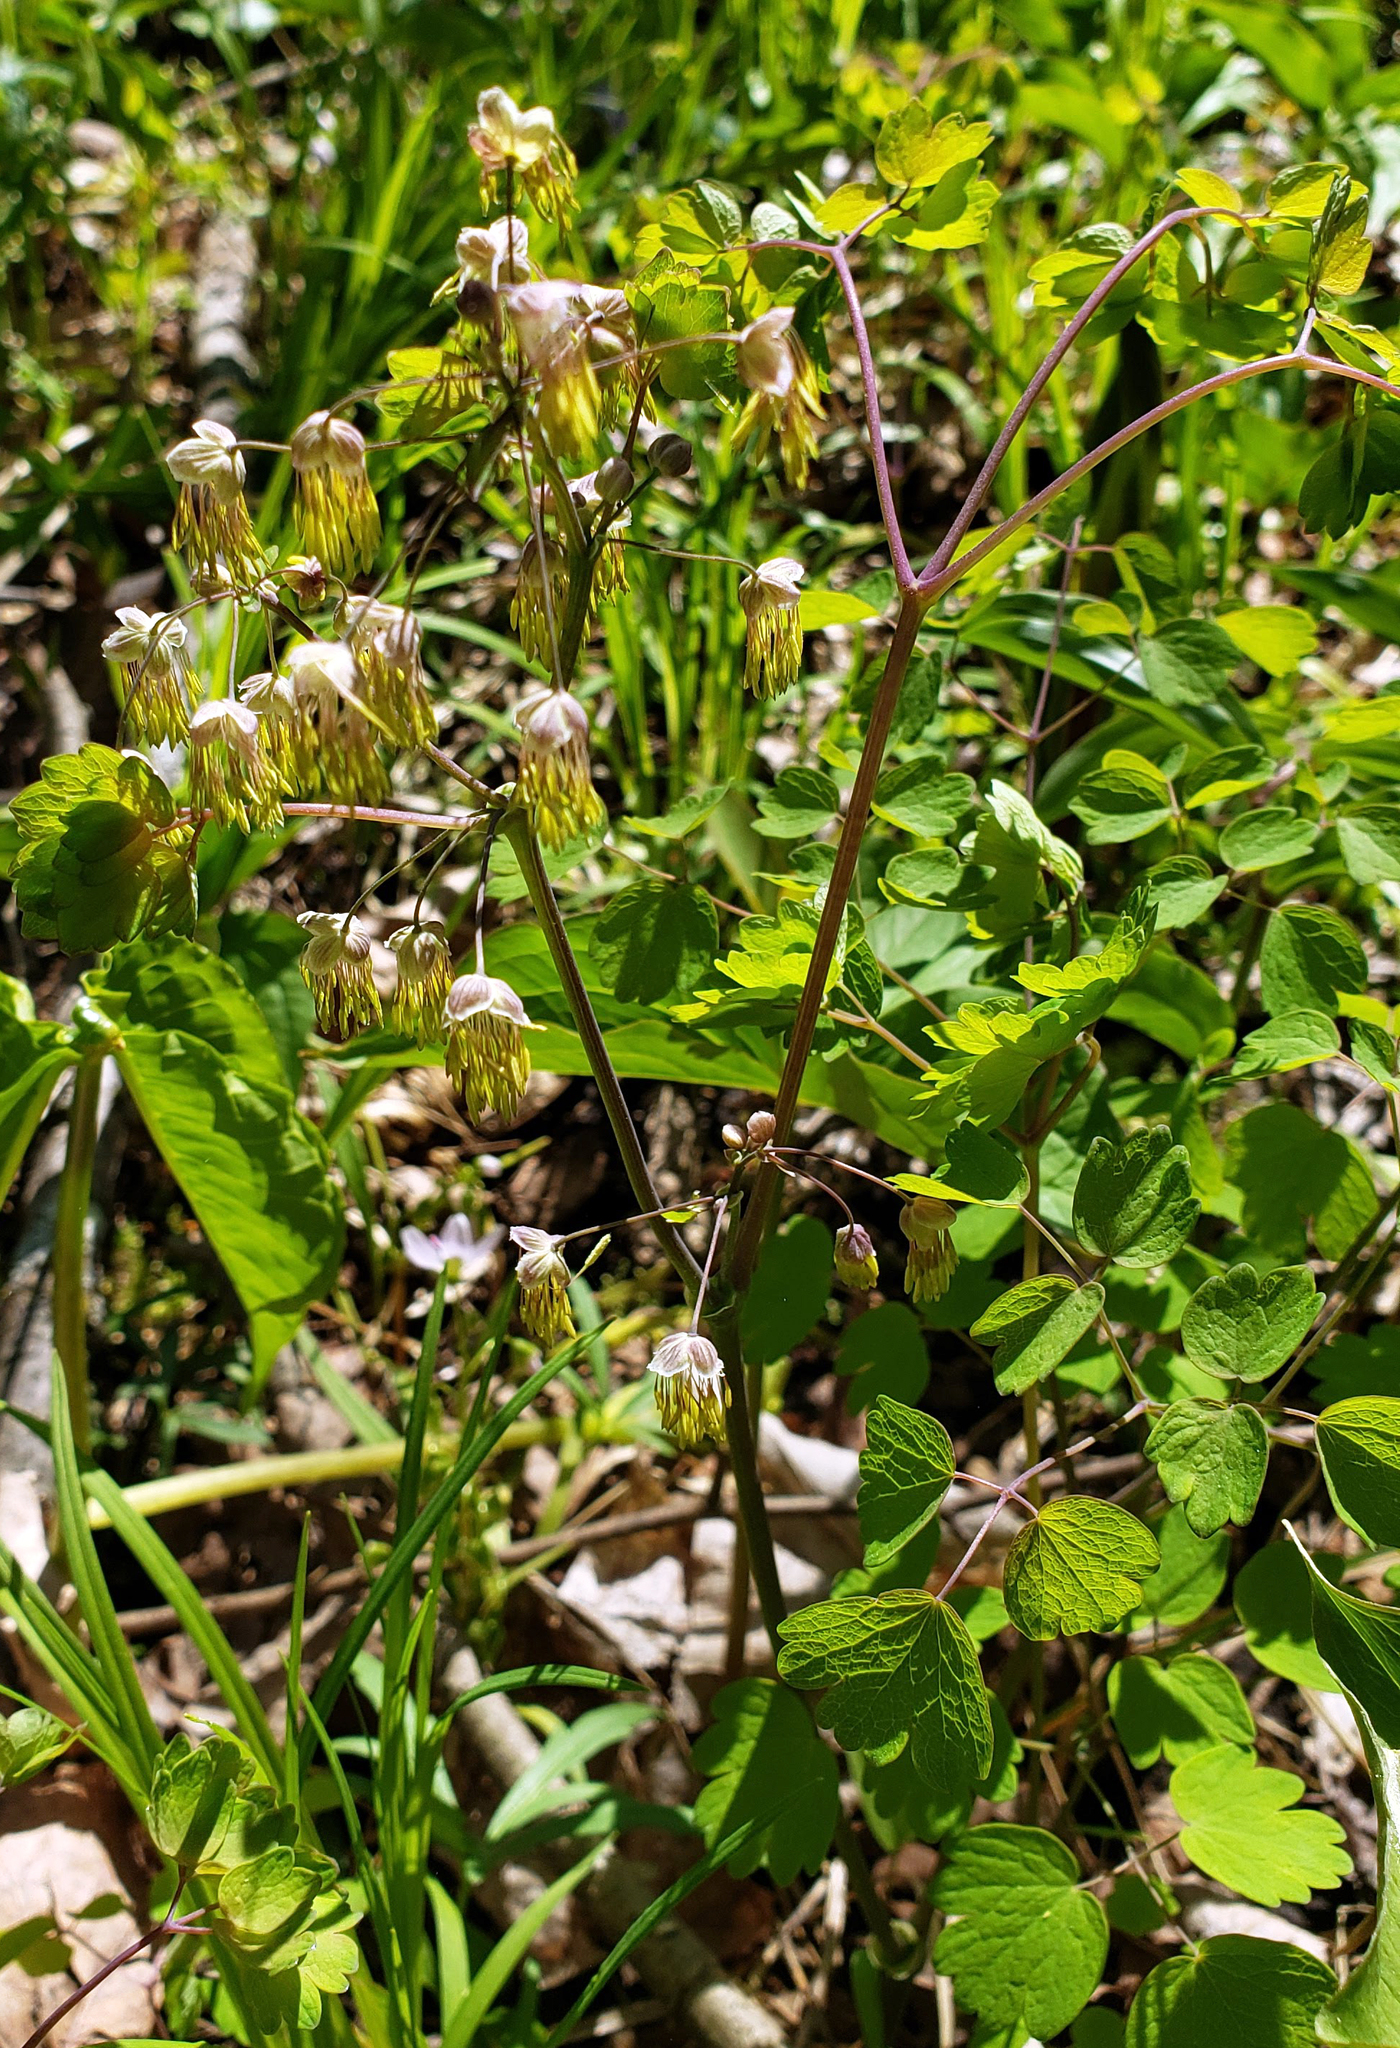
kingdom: Plantae
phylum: Tracheophyta
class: Magnoliopsida
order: Ranunculales
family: Ranunculaceae
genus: Thalictrum
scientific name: Thalictrum dioicum
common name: Early meadow-rue
